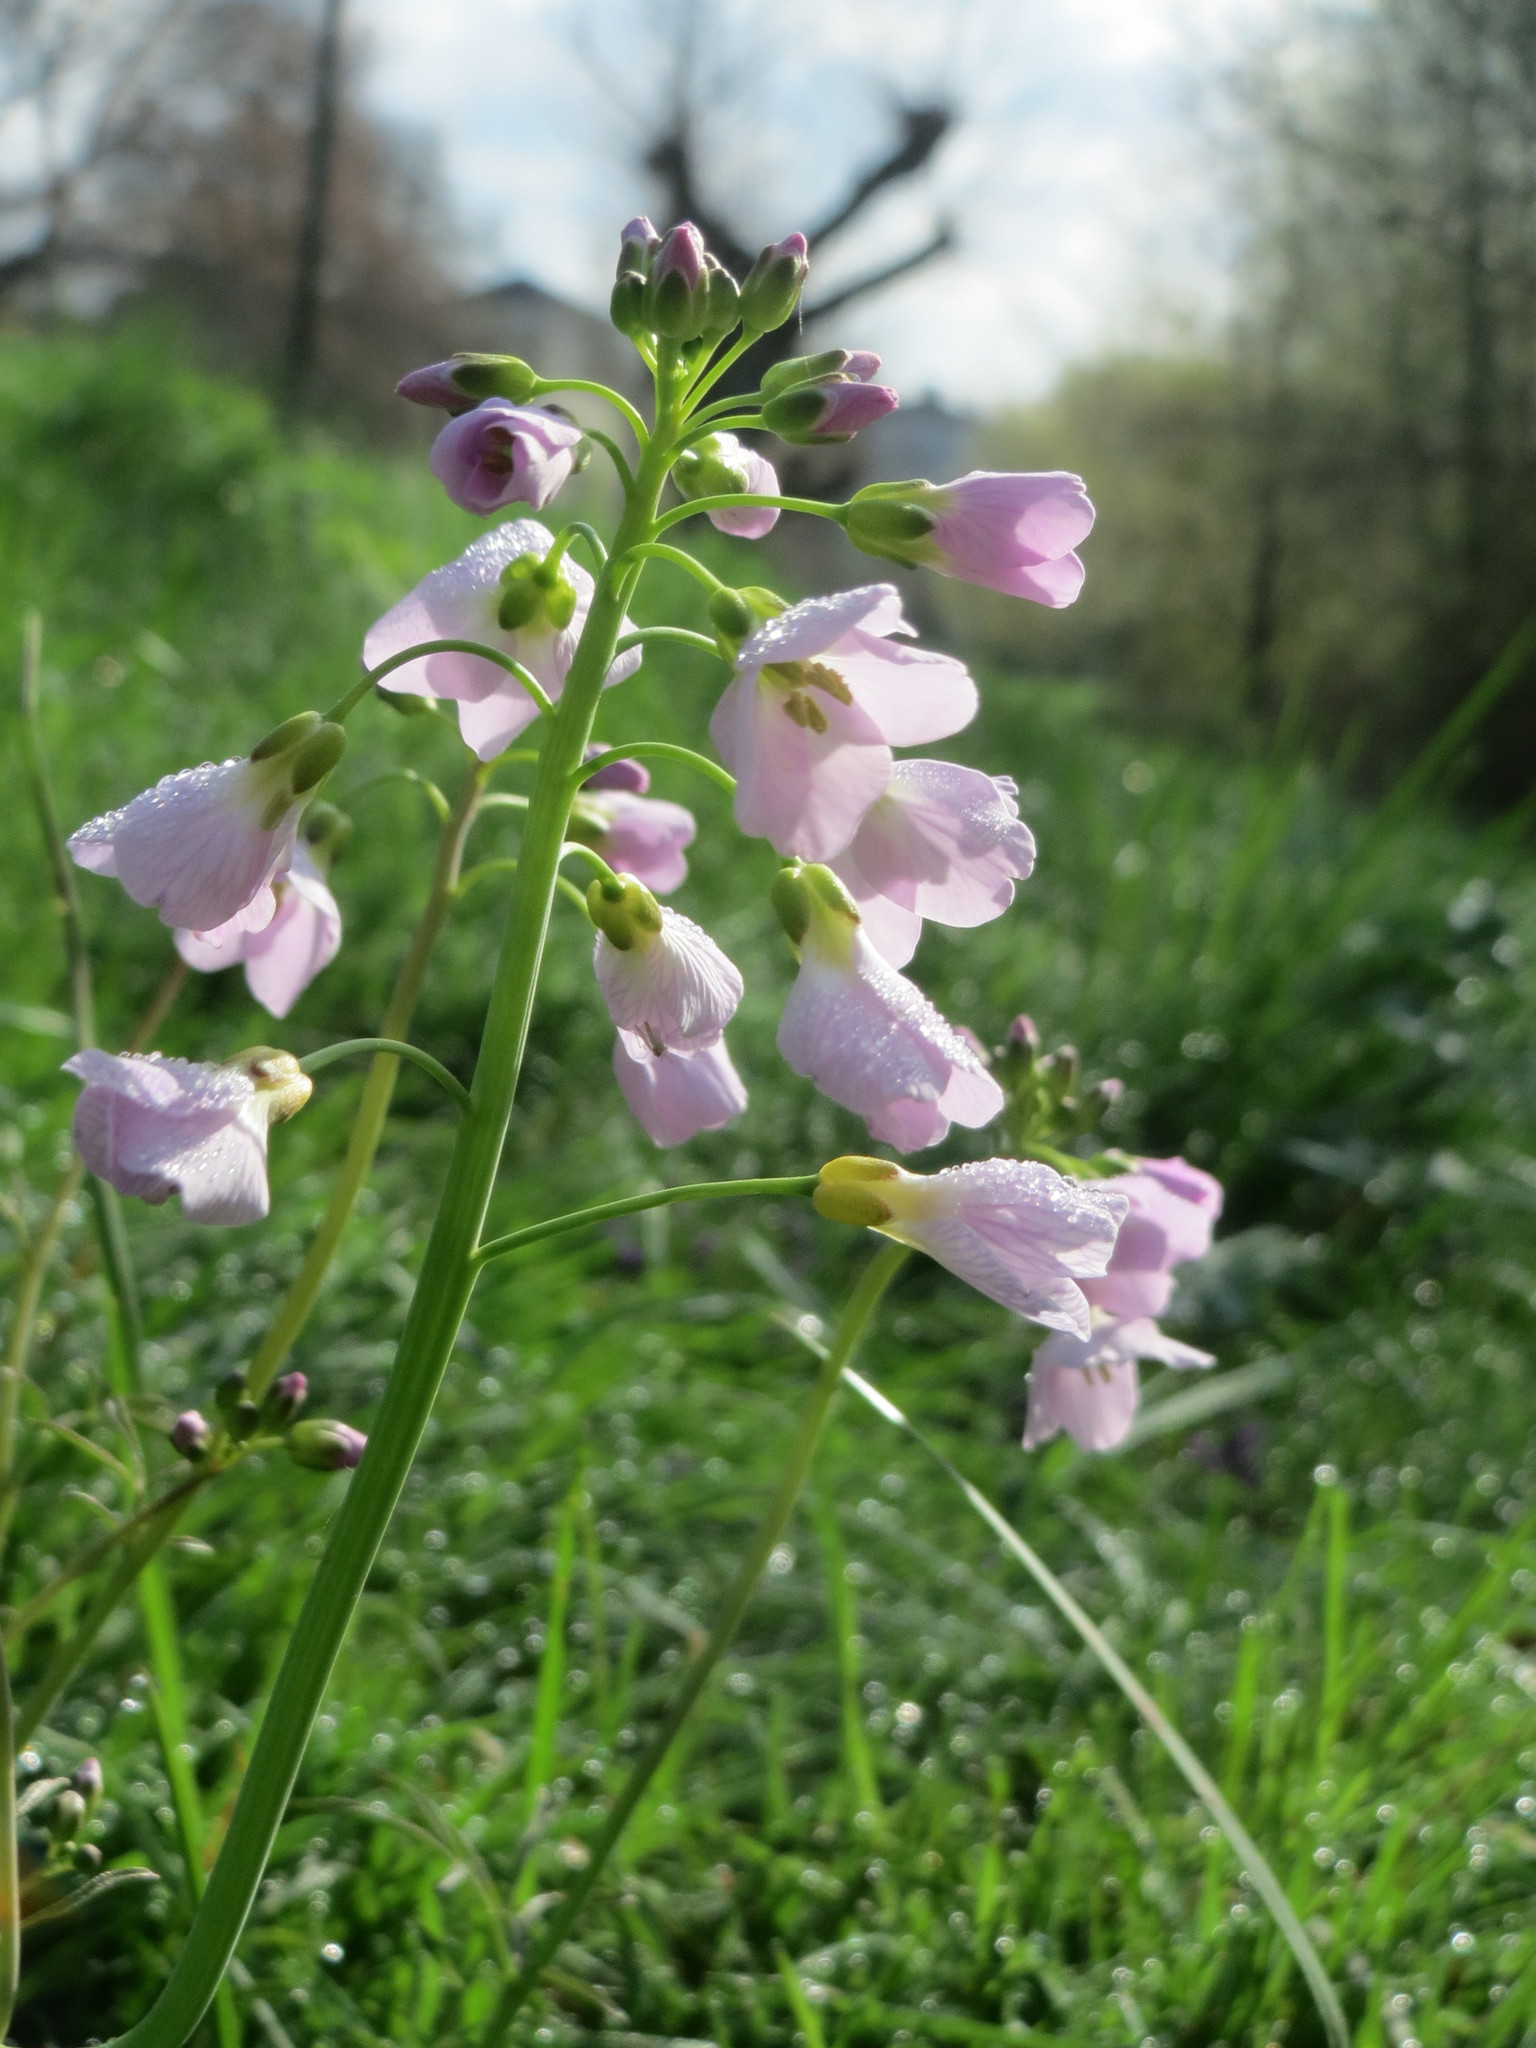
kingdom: Plantae
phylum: Tracheophyta
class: Magnoliopsida
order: Brassicales
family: Brassicaceae
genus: Cardamine
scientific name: Cardamine pratensis
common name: Cuckoo flower
